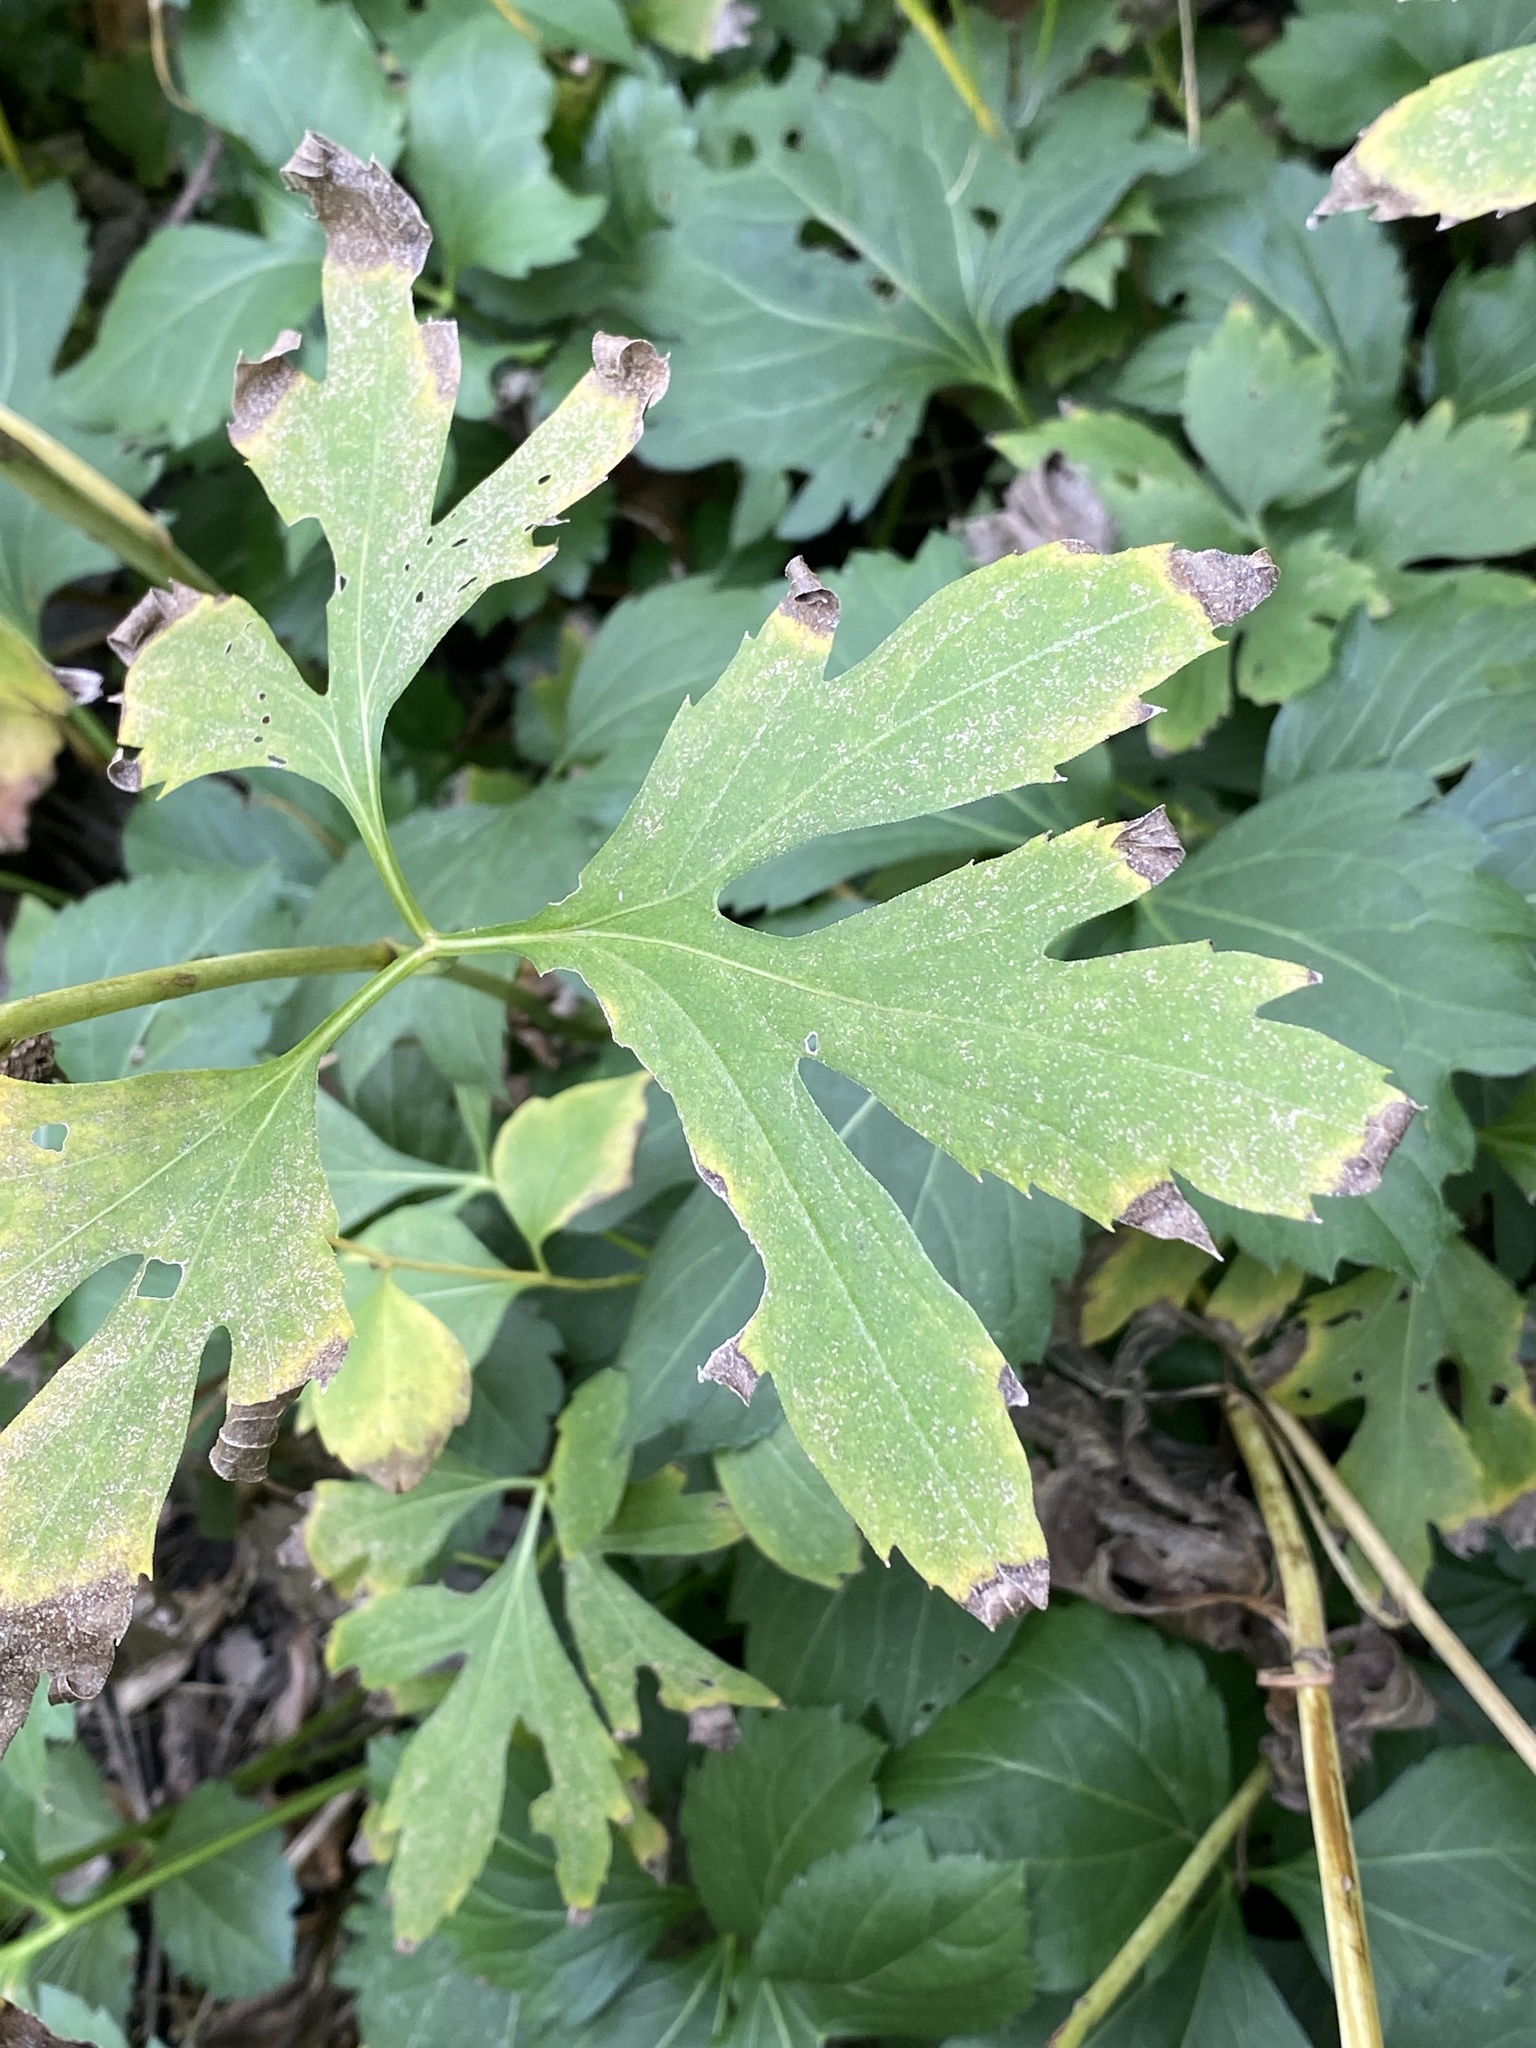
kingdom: Plantae
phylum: Tracheophyta
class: Magnoliopsida
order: Asterales
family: Asteraceae
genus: Rudbeckia
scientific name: Rudbeckia laciniata
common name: Coneflower
